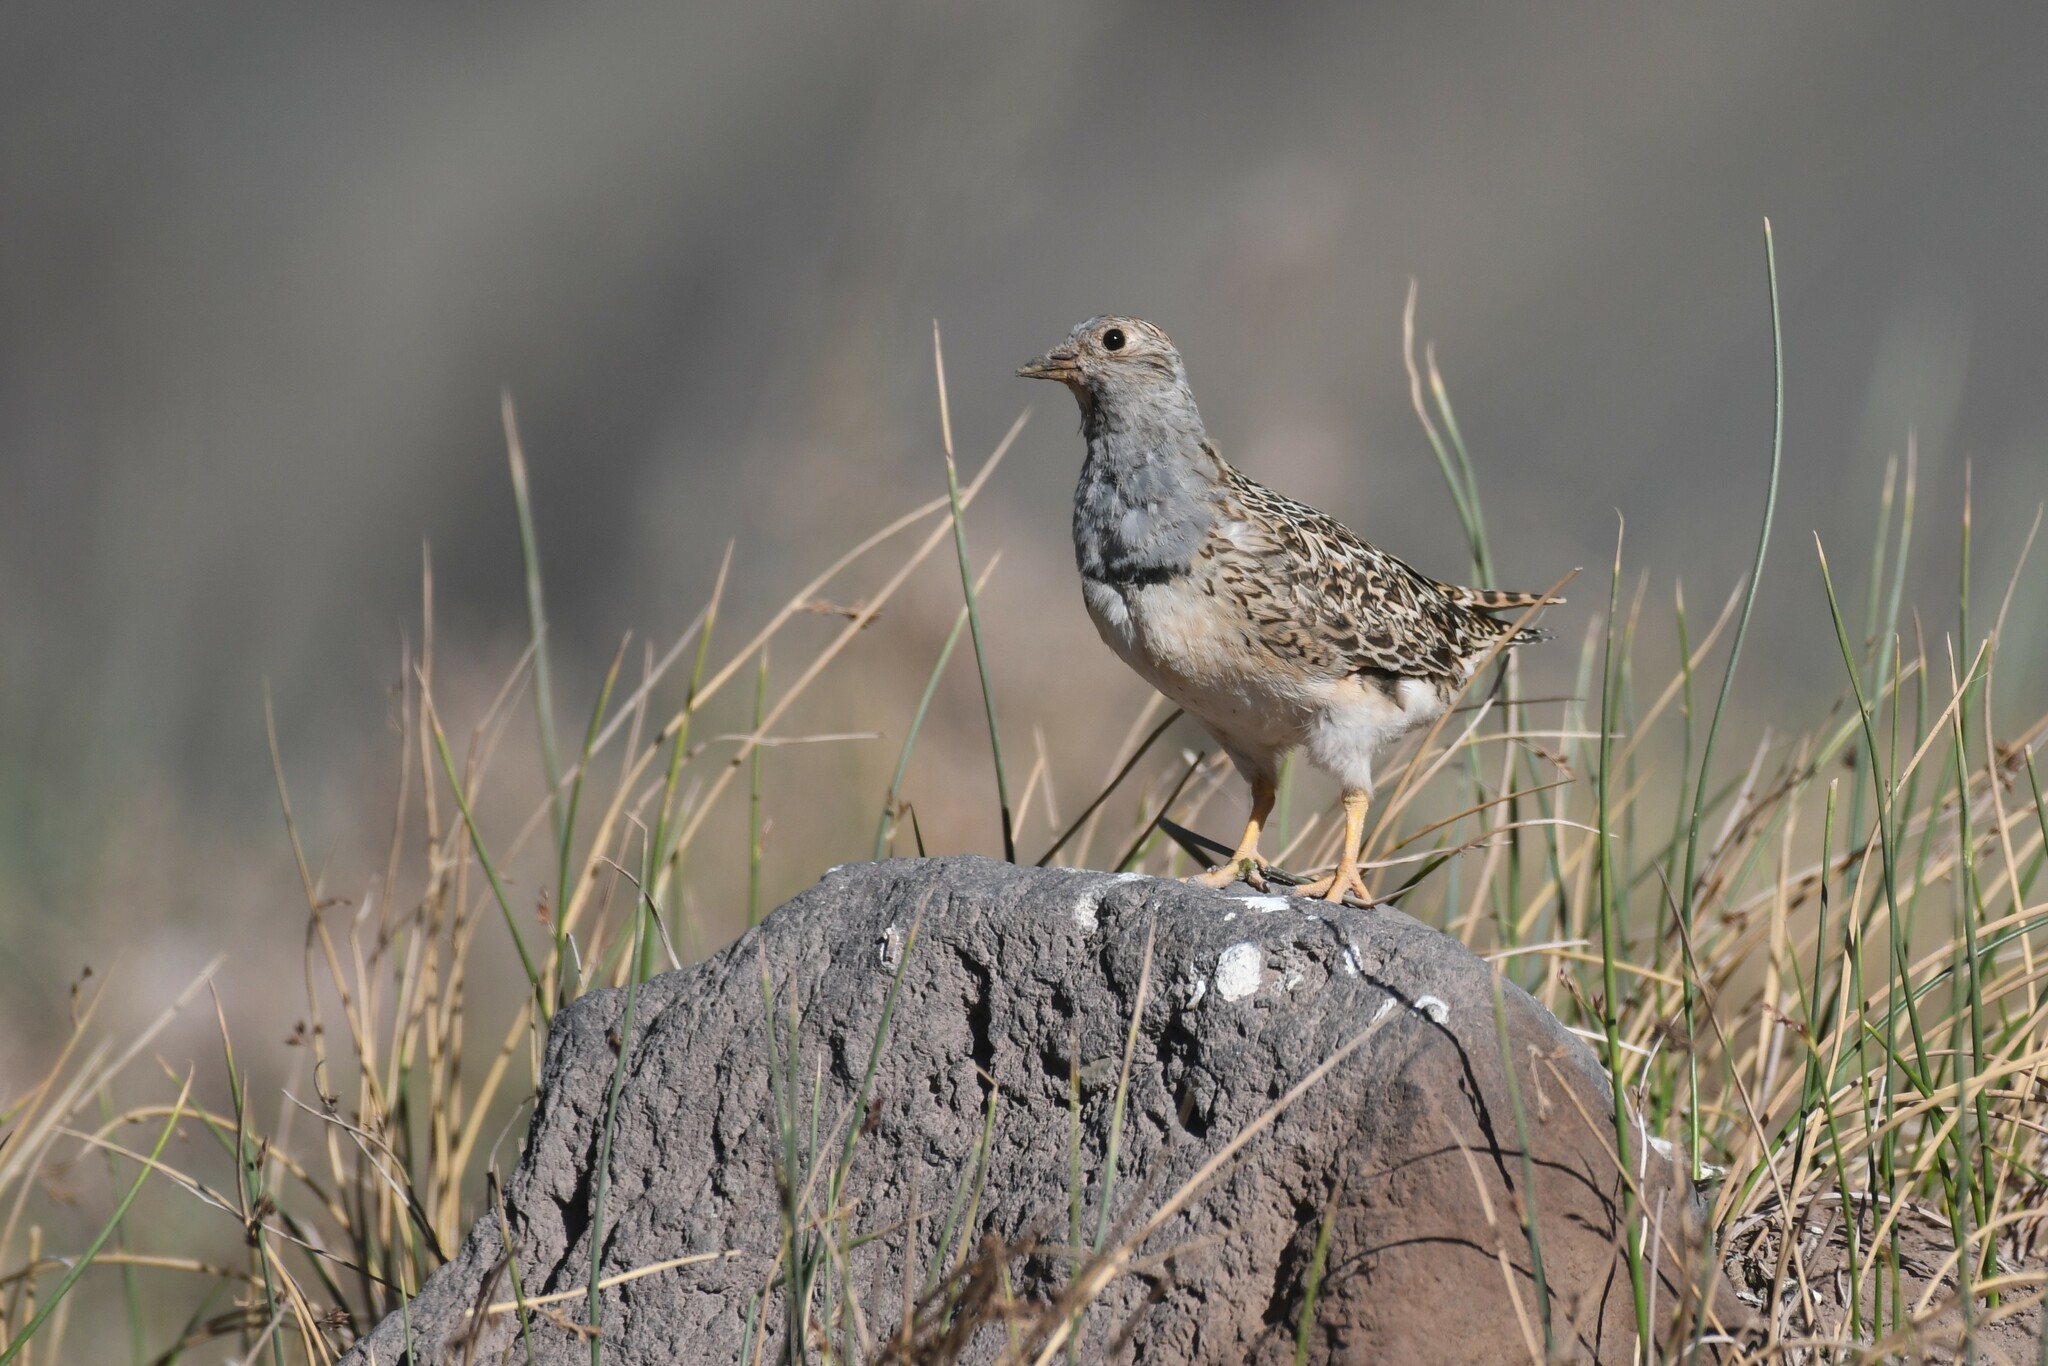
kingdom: Animalia
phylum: Chordata
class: Aves
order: Charadriiformes
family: Thinocoridae
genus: Thinocorus
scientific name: Thinocorus orbignyianus
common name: Grey-breasted seedsnipe
